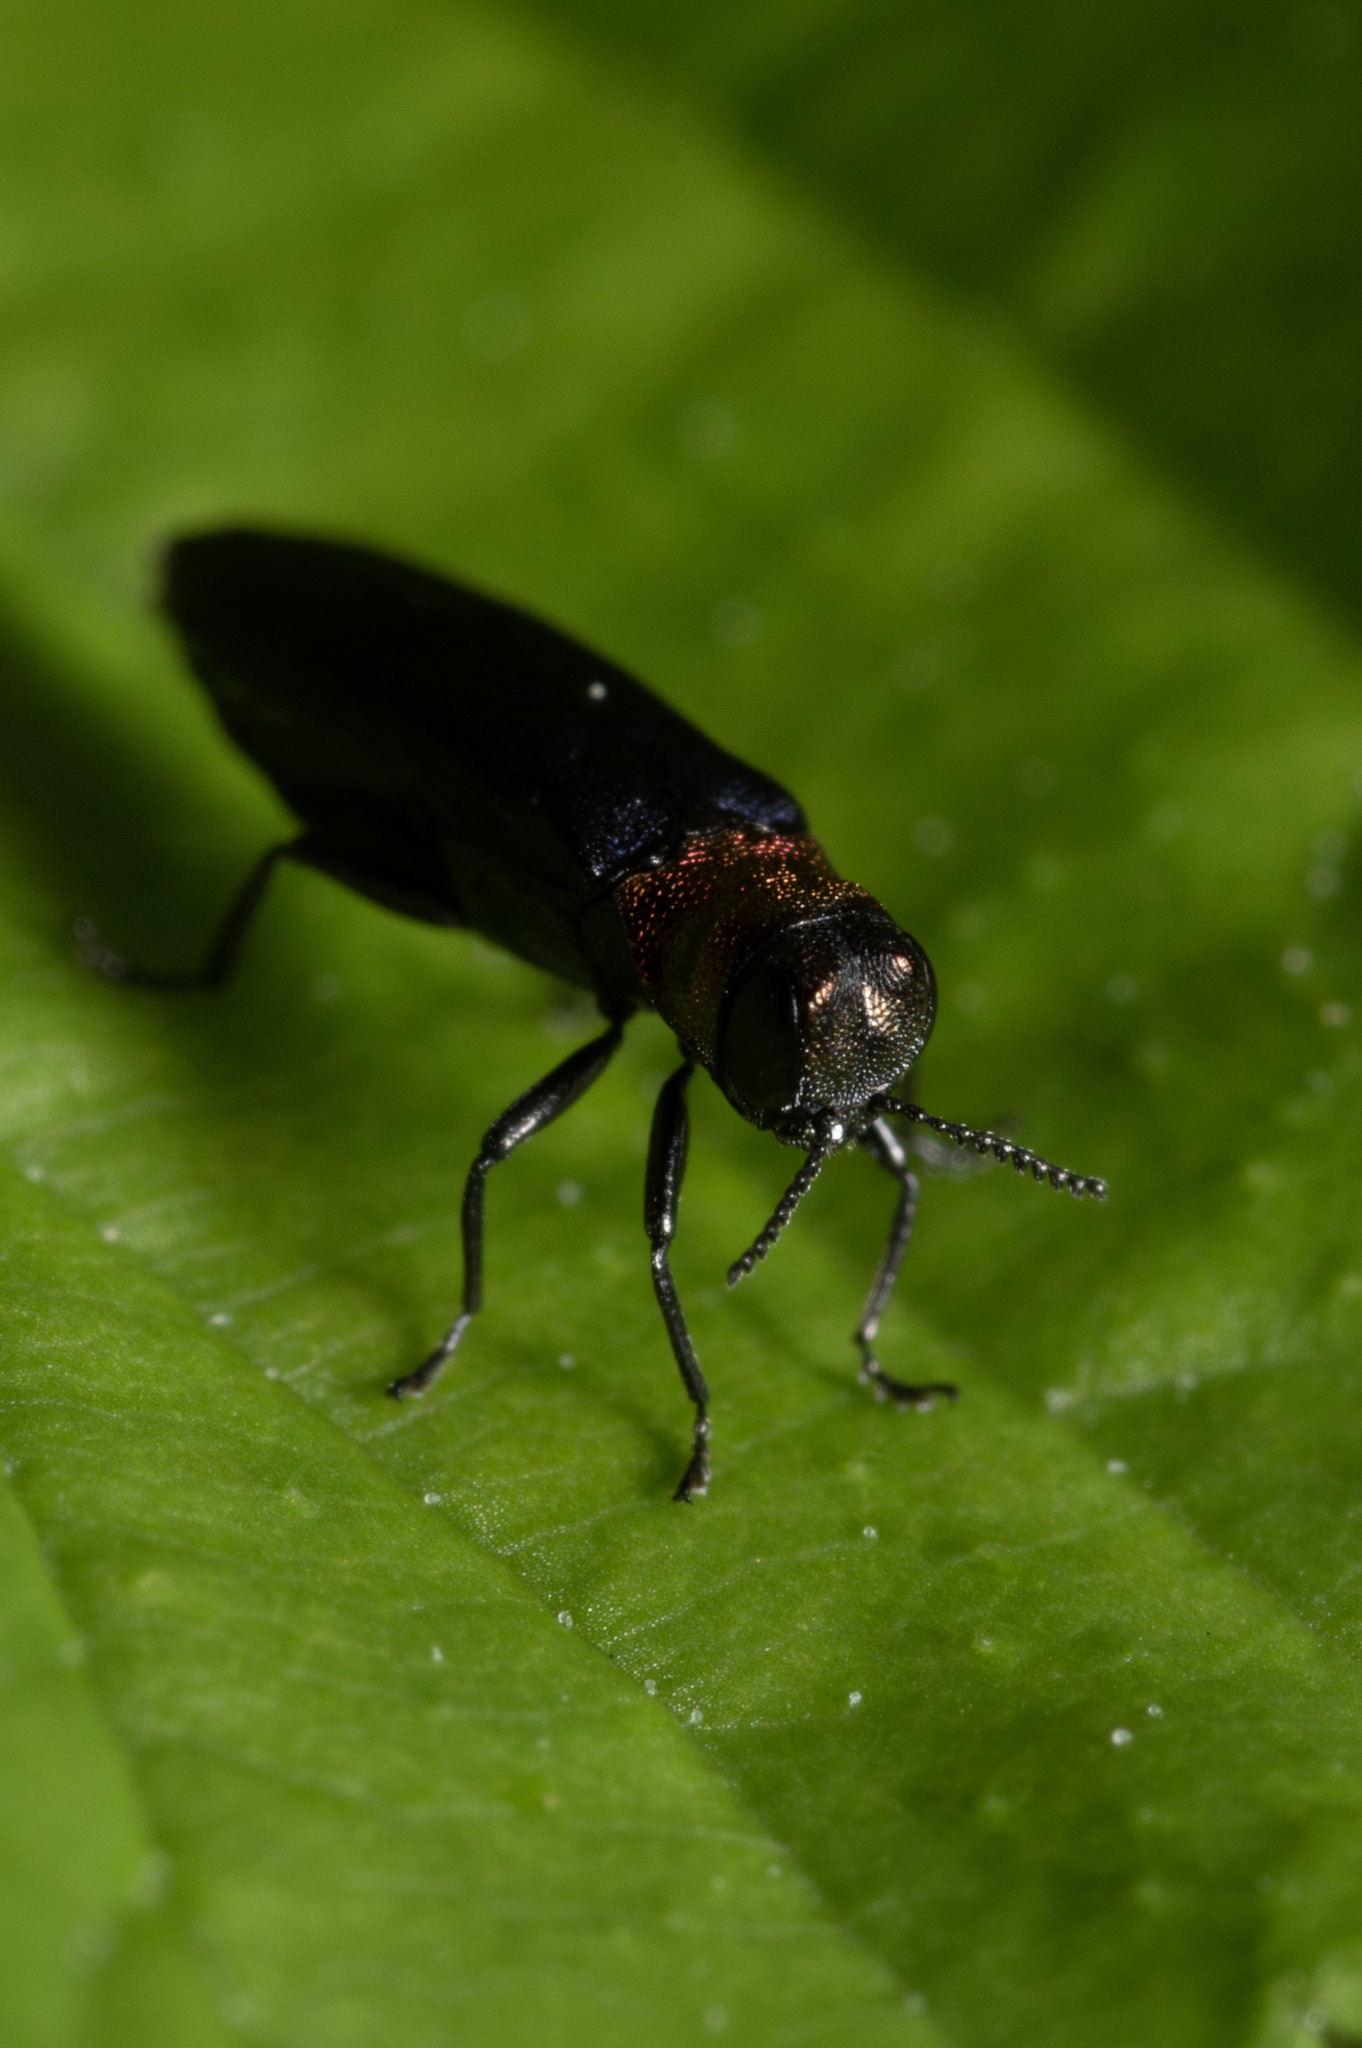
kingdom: Animalia
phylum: Arthropoda
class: Insecta
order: Coleoptera
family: Buprestidae
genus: Agrilus
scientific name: Agrilus ruficollis
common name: Red-necked cane borer beetle
